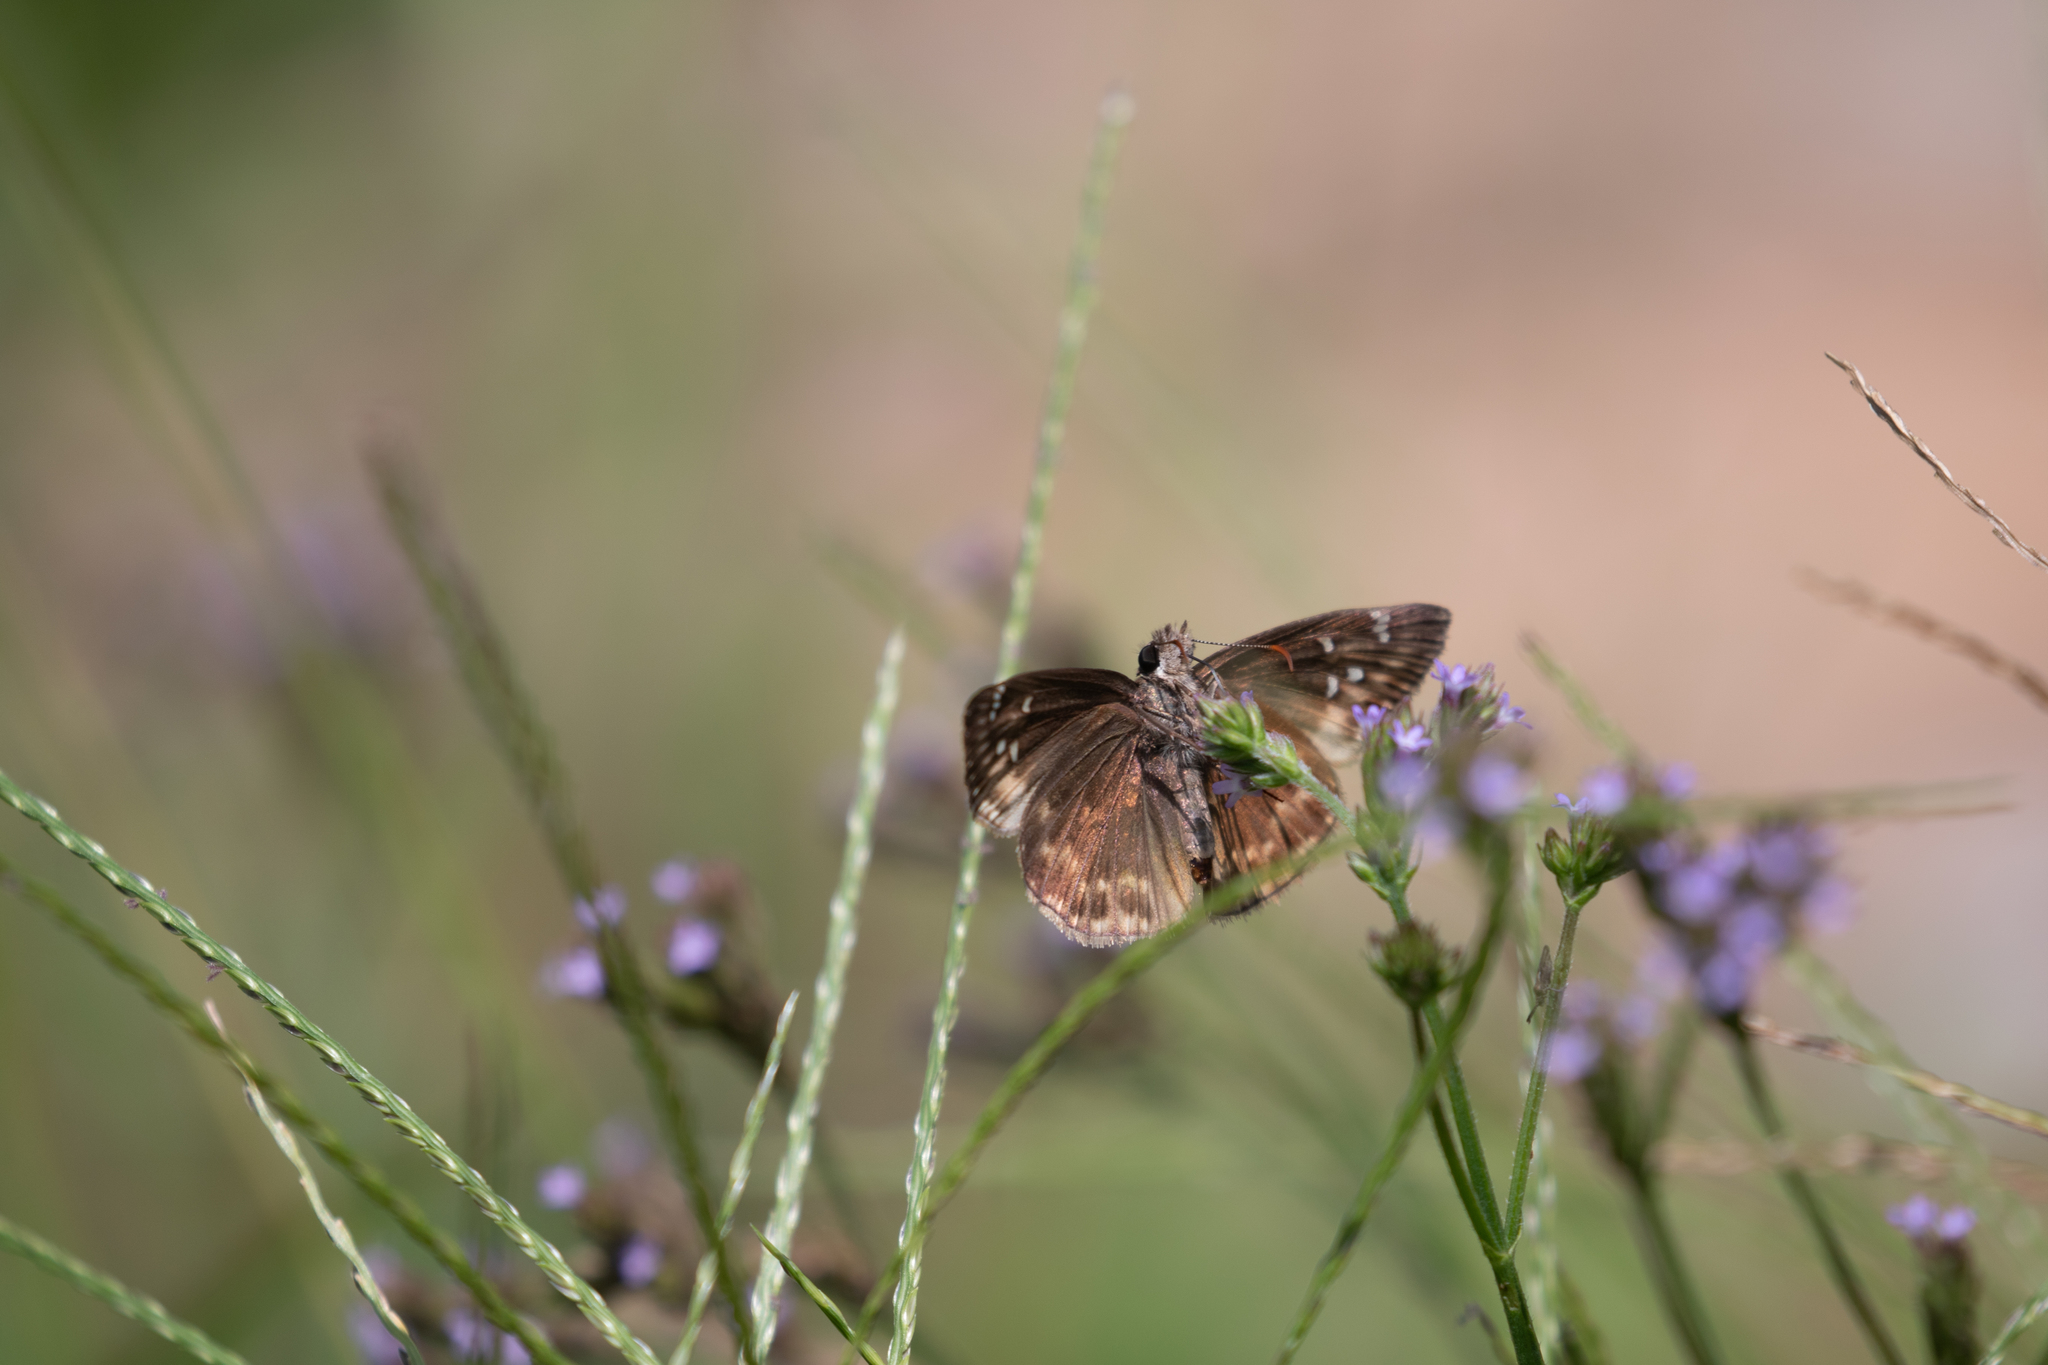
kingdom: Animalia
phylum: Arthropoda
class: Insecta
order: Lepidoptera
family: Hesperiidae
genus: Erynnis
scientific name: Erynnis horatius
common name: Horace's duskywing
